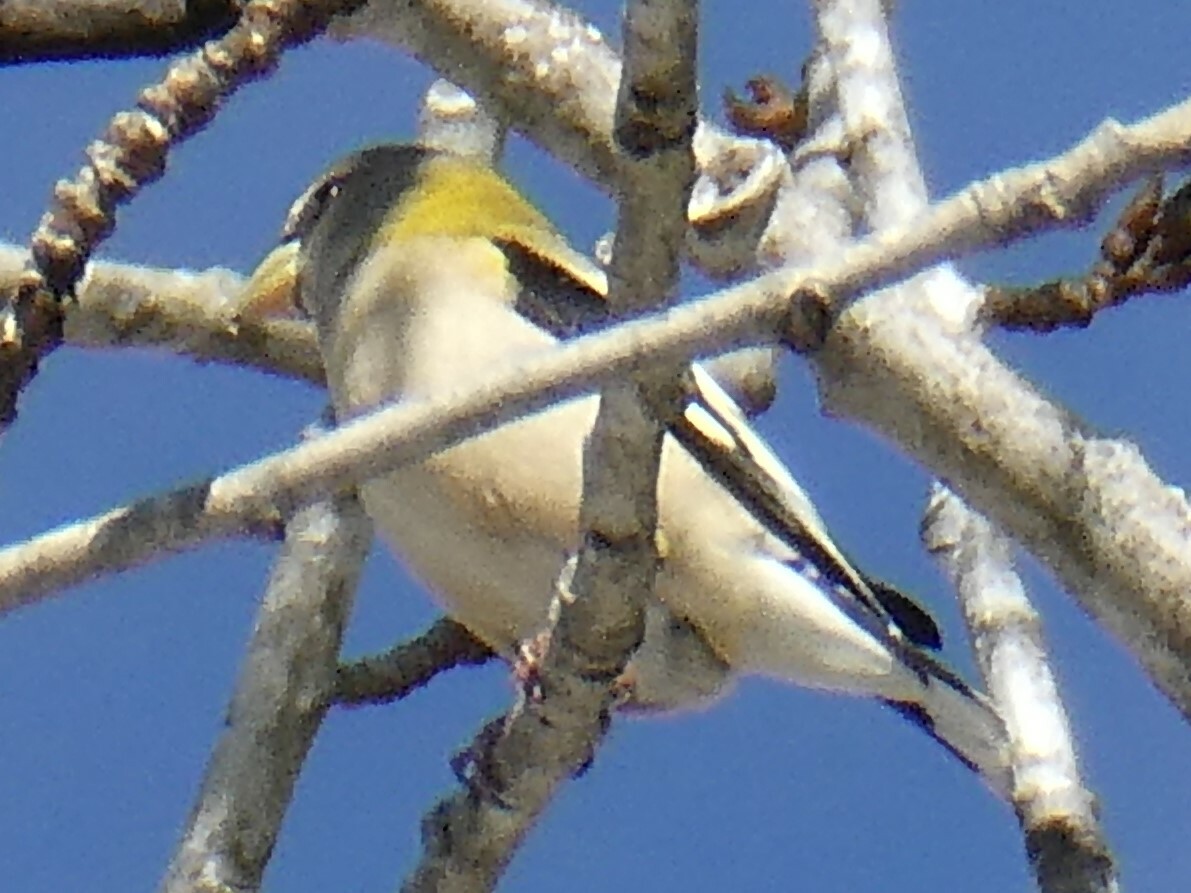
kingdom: Animalia
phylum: Chordata
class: Aves
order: Passeriformes
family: Fringillidae
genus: Hesperiphona
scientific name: Hesperiphona vespertina
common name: Evening grosbeak
